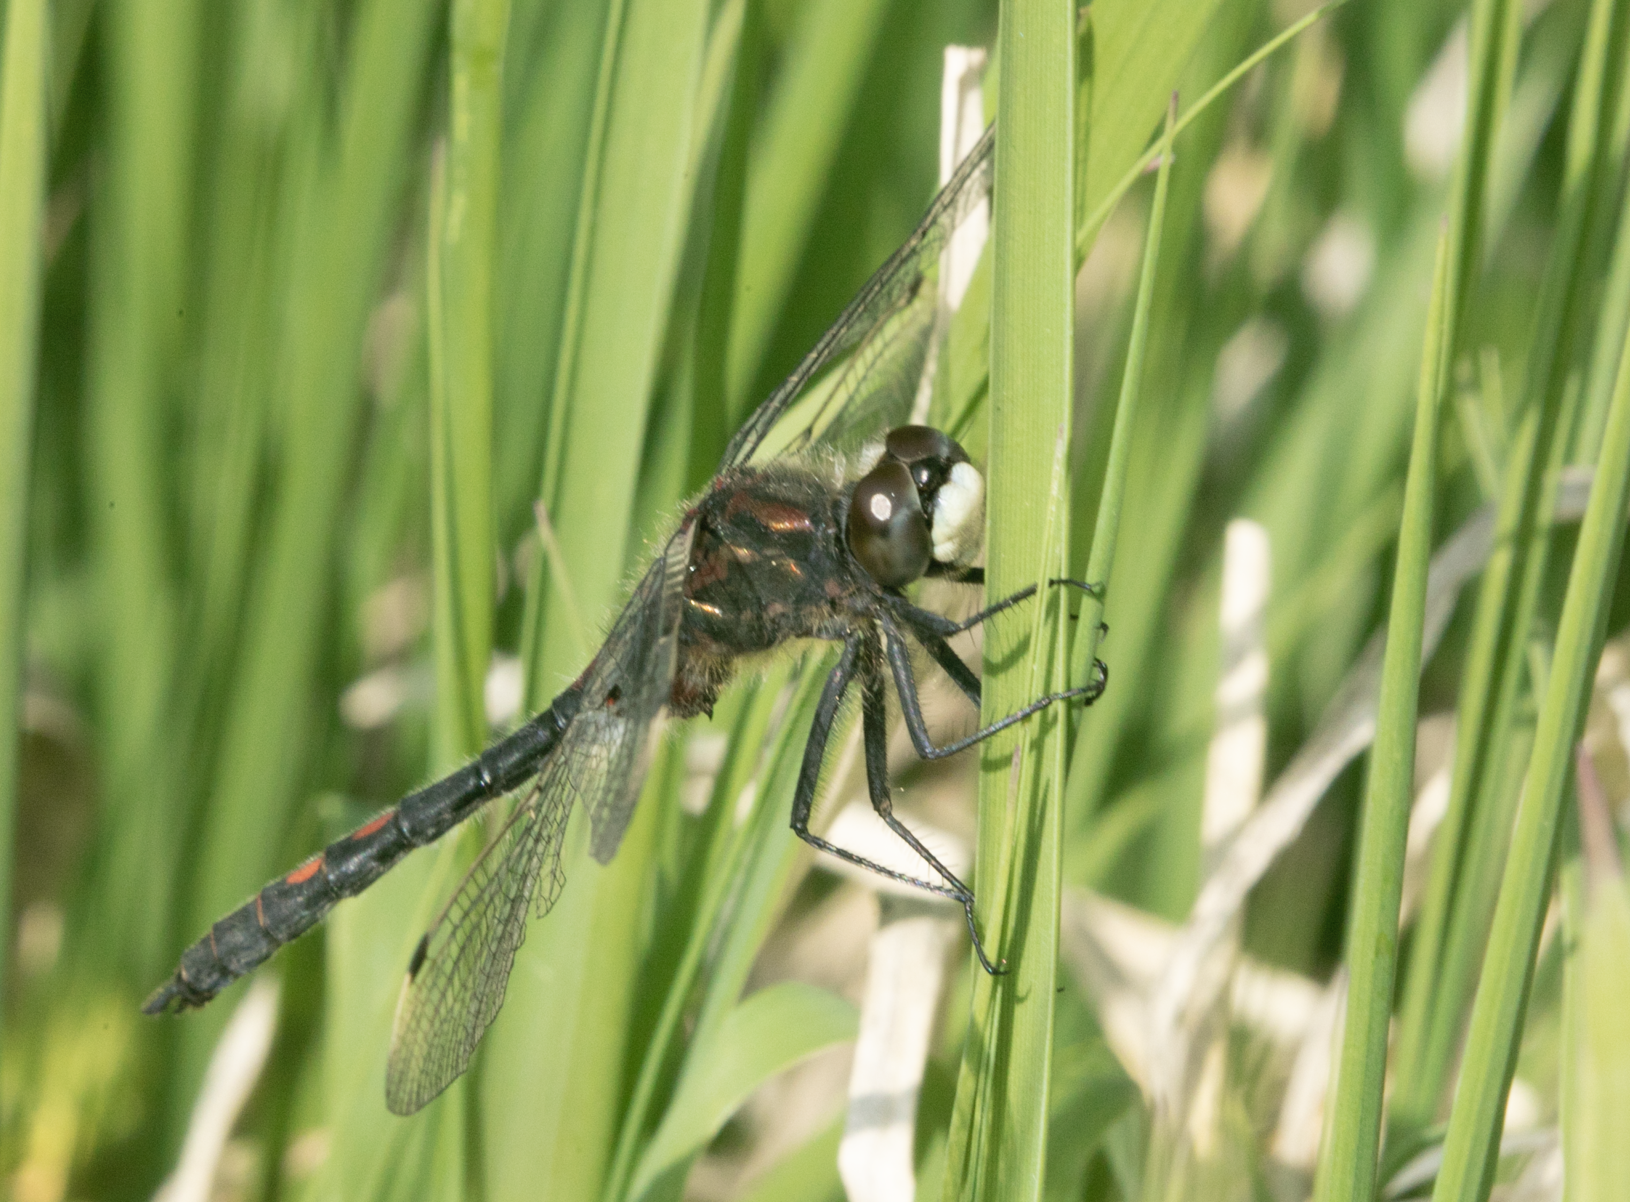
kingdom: Animalia
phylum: Arthropoda
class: Insecta
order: Odonata
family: Libellulidae
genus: Leucorrhinia
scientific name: Leucorrhinia dubia
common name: White-faced darter
